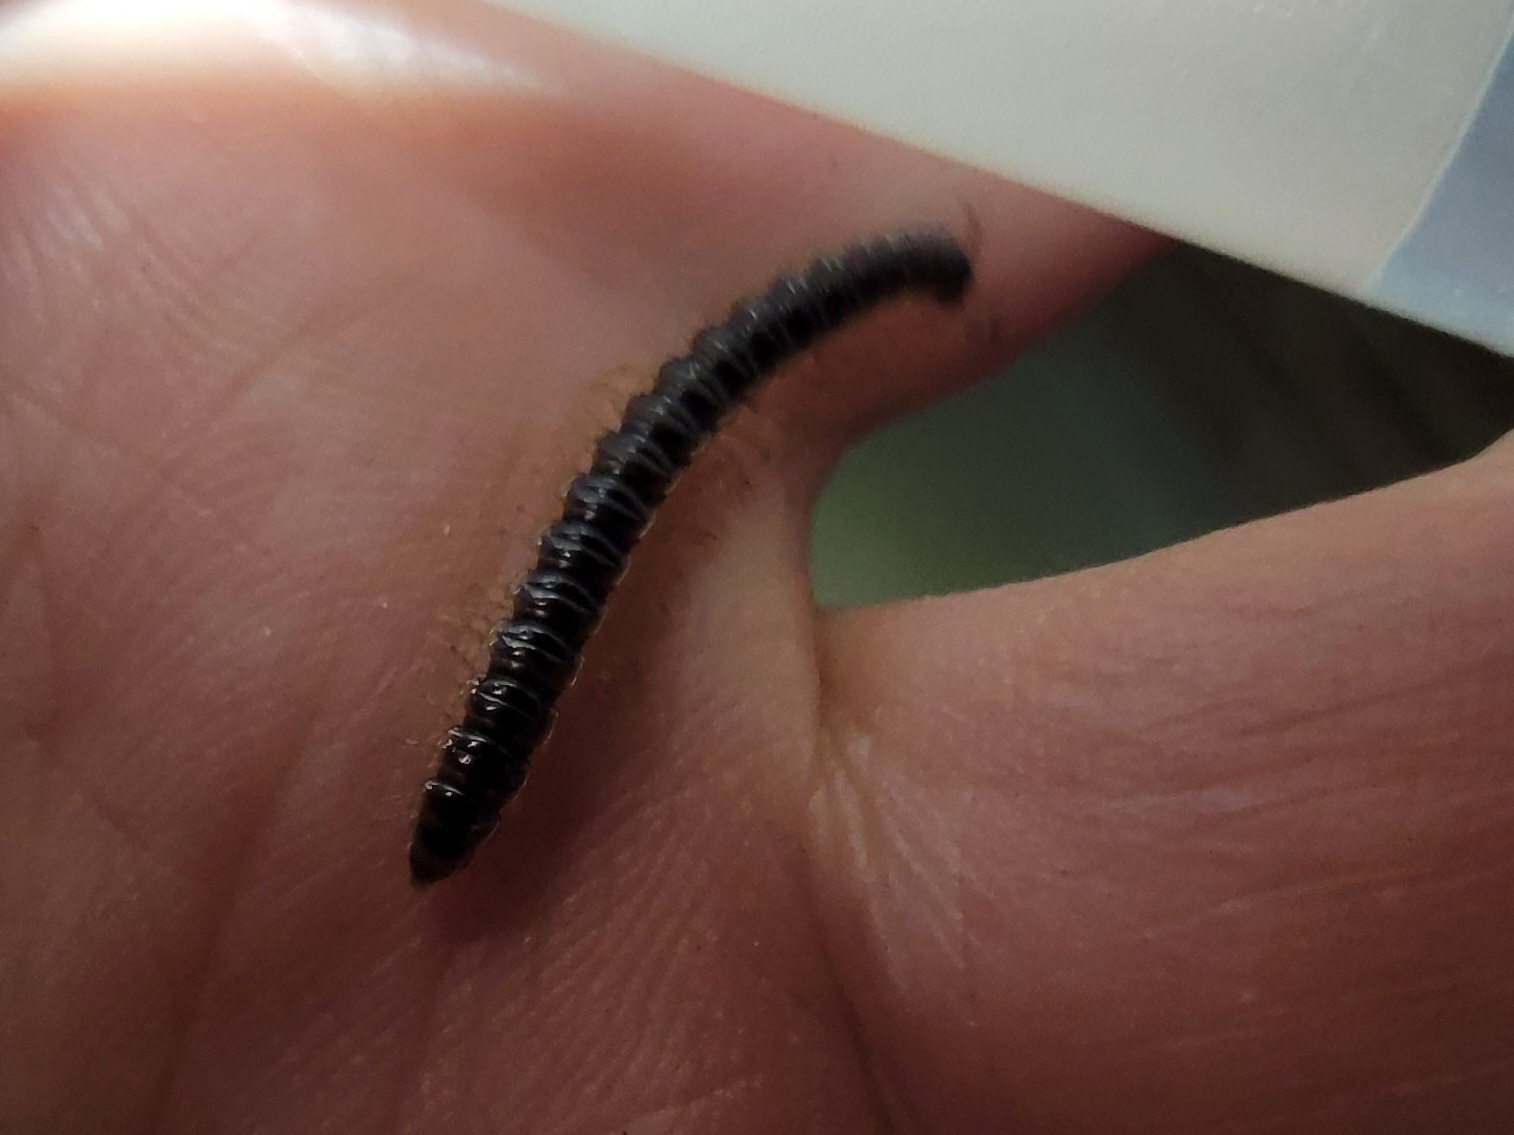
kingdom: Animalia
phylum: Arthropoda
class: Diplopoda
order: Polydesmida
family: Paradoxosomatidae
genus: Oxidus
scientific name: Oxidus gracilis
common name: Greenhouse millipede
